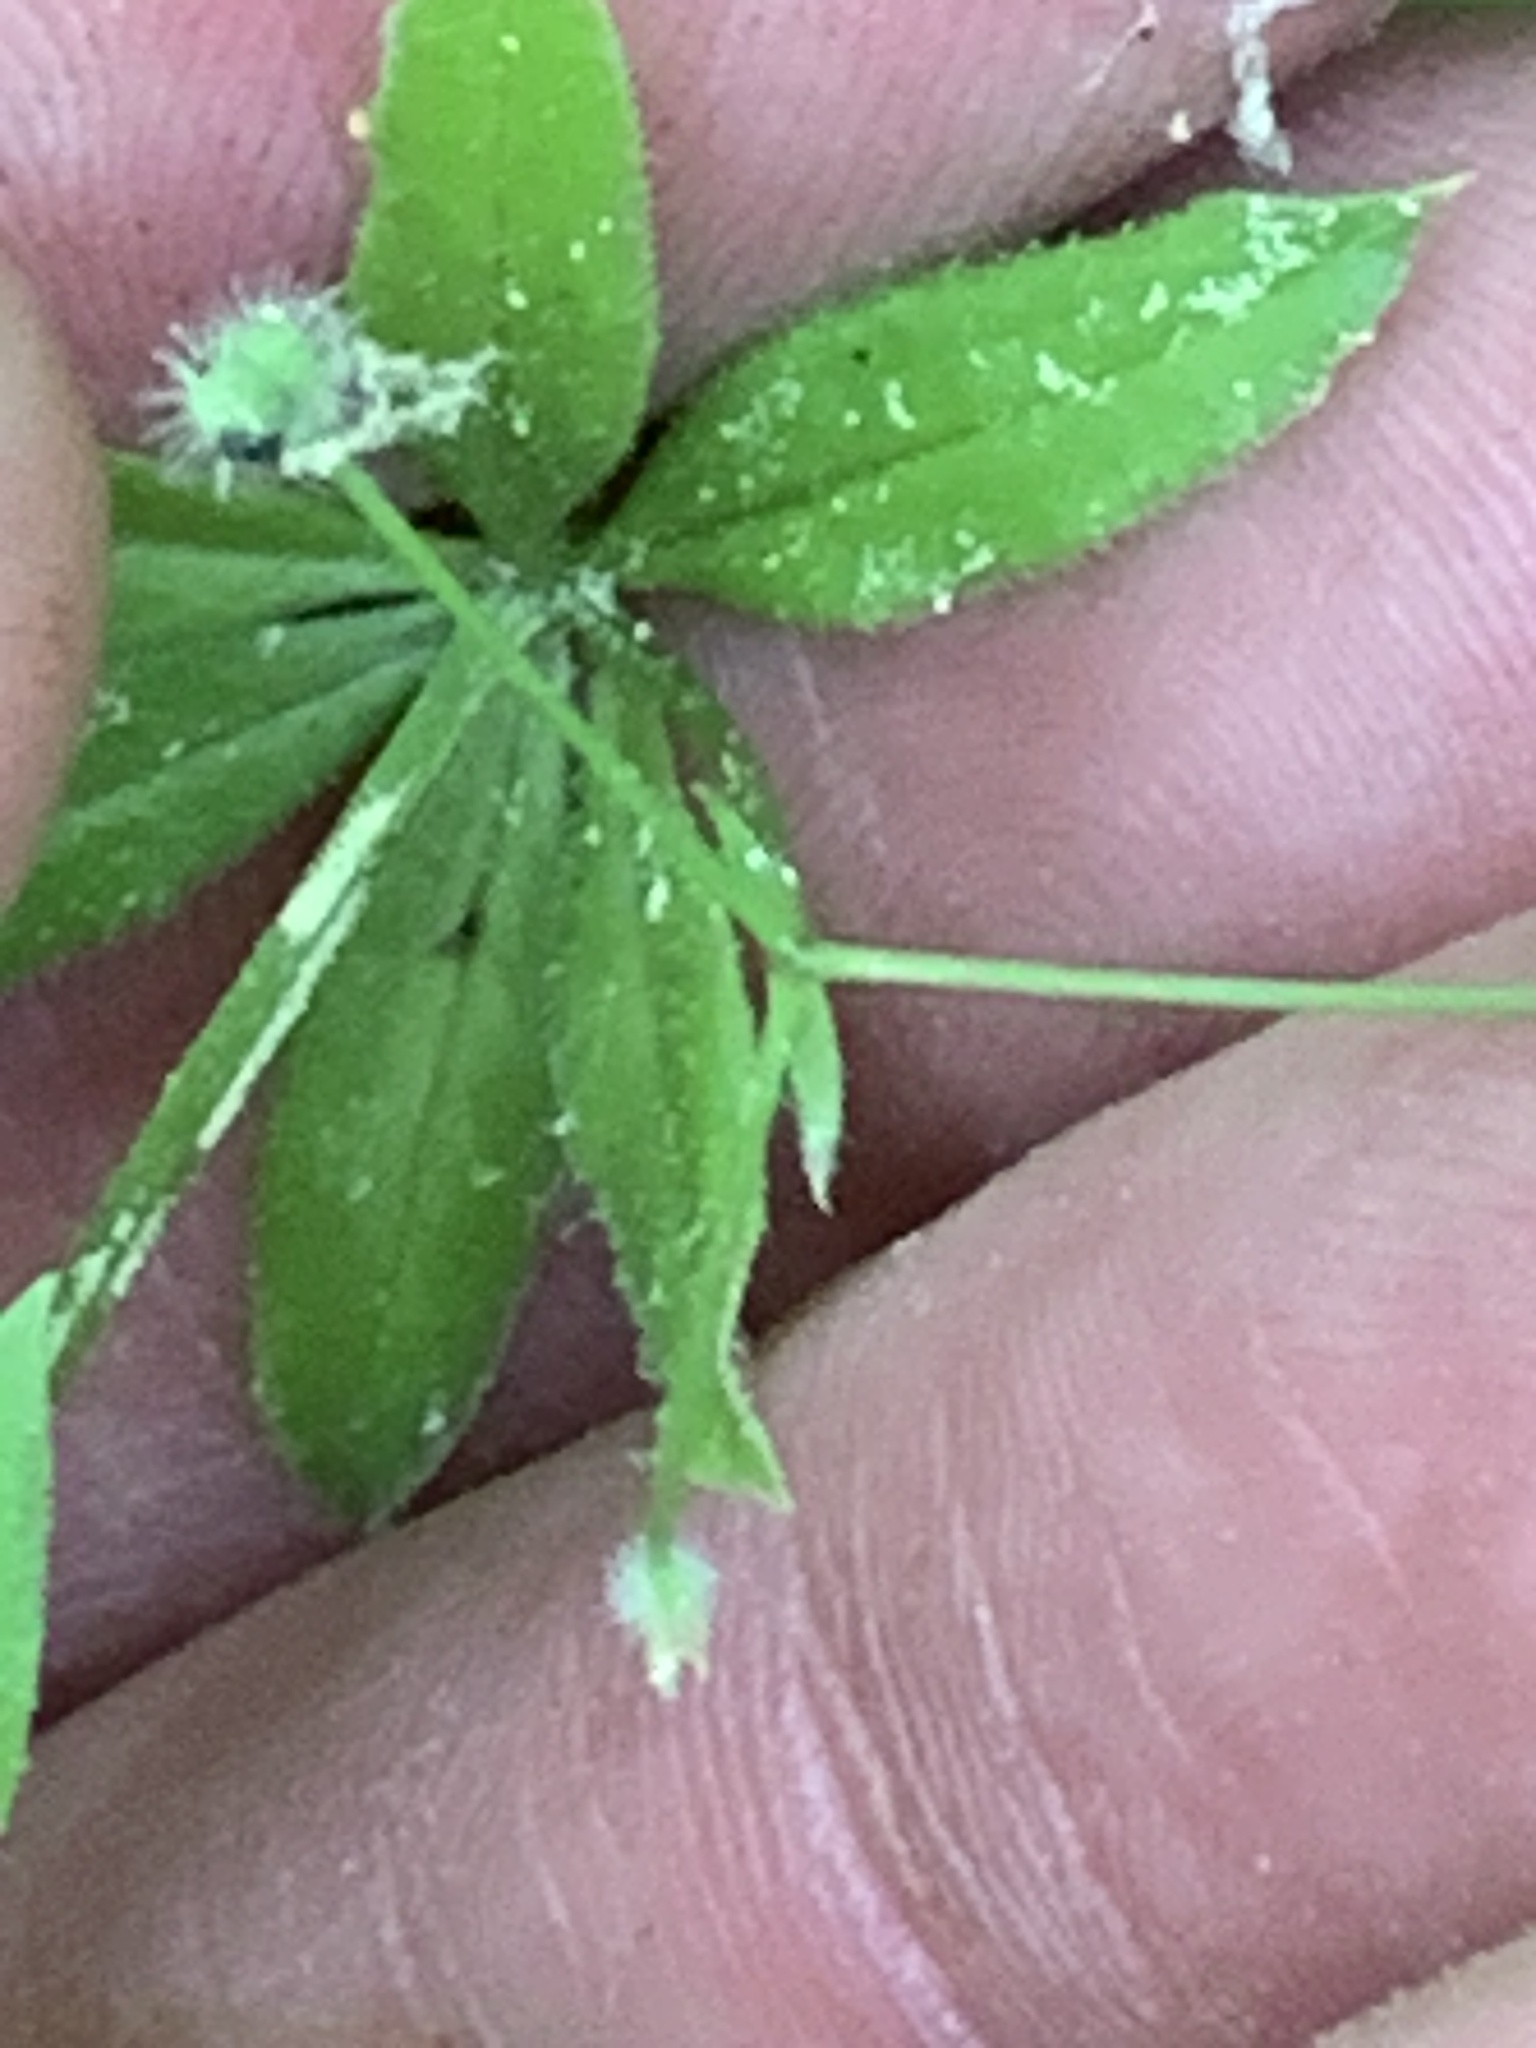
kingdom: Plantae
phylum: Tracheophyta
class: Magnoliopsida
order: Gentianales
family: Rubiaceae
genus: Galium
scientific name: Galium triflorum
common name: Fragrant bedstraw
